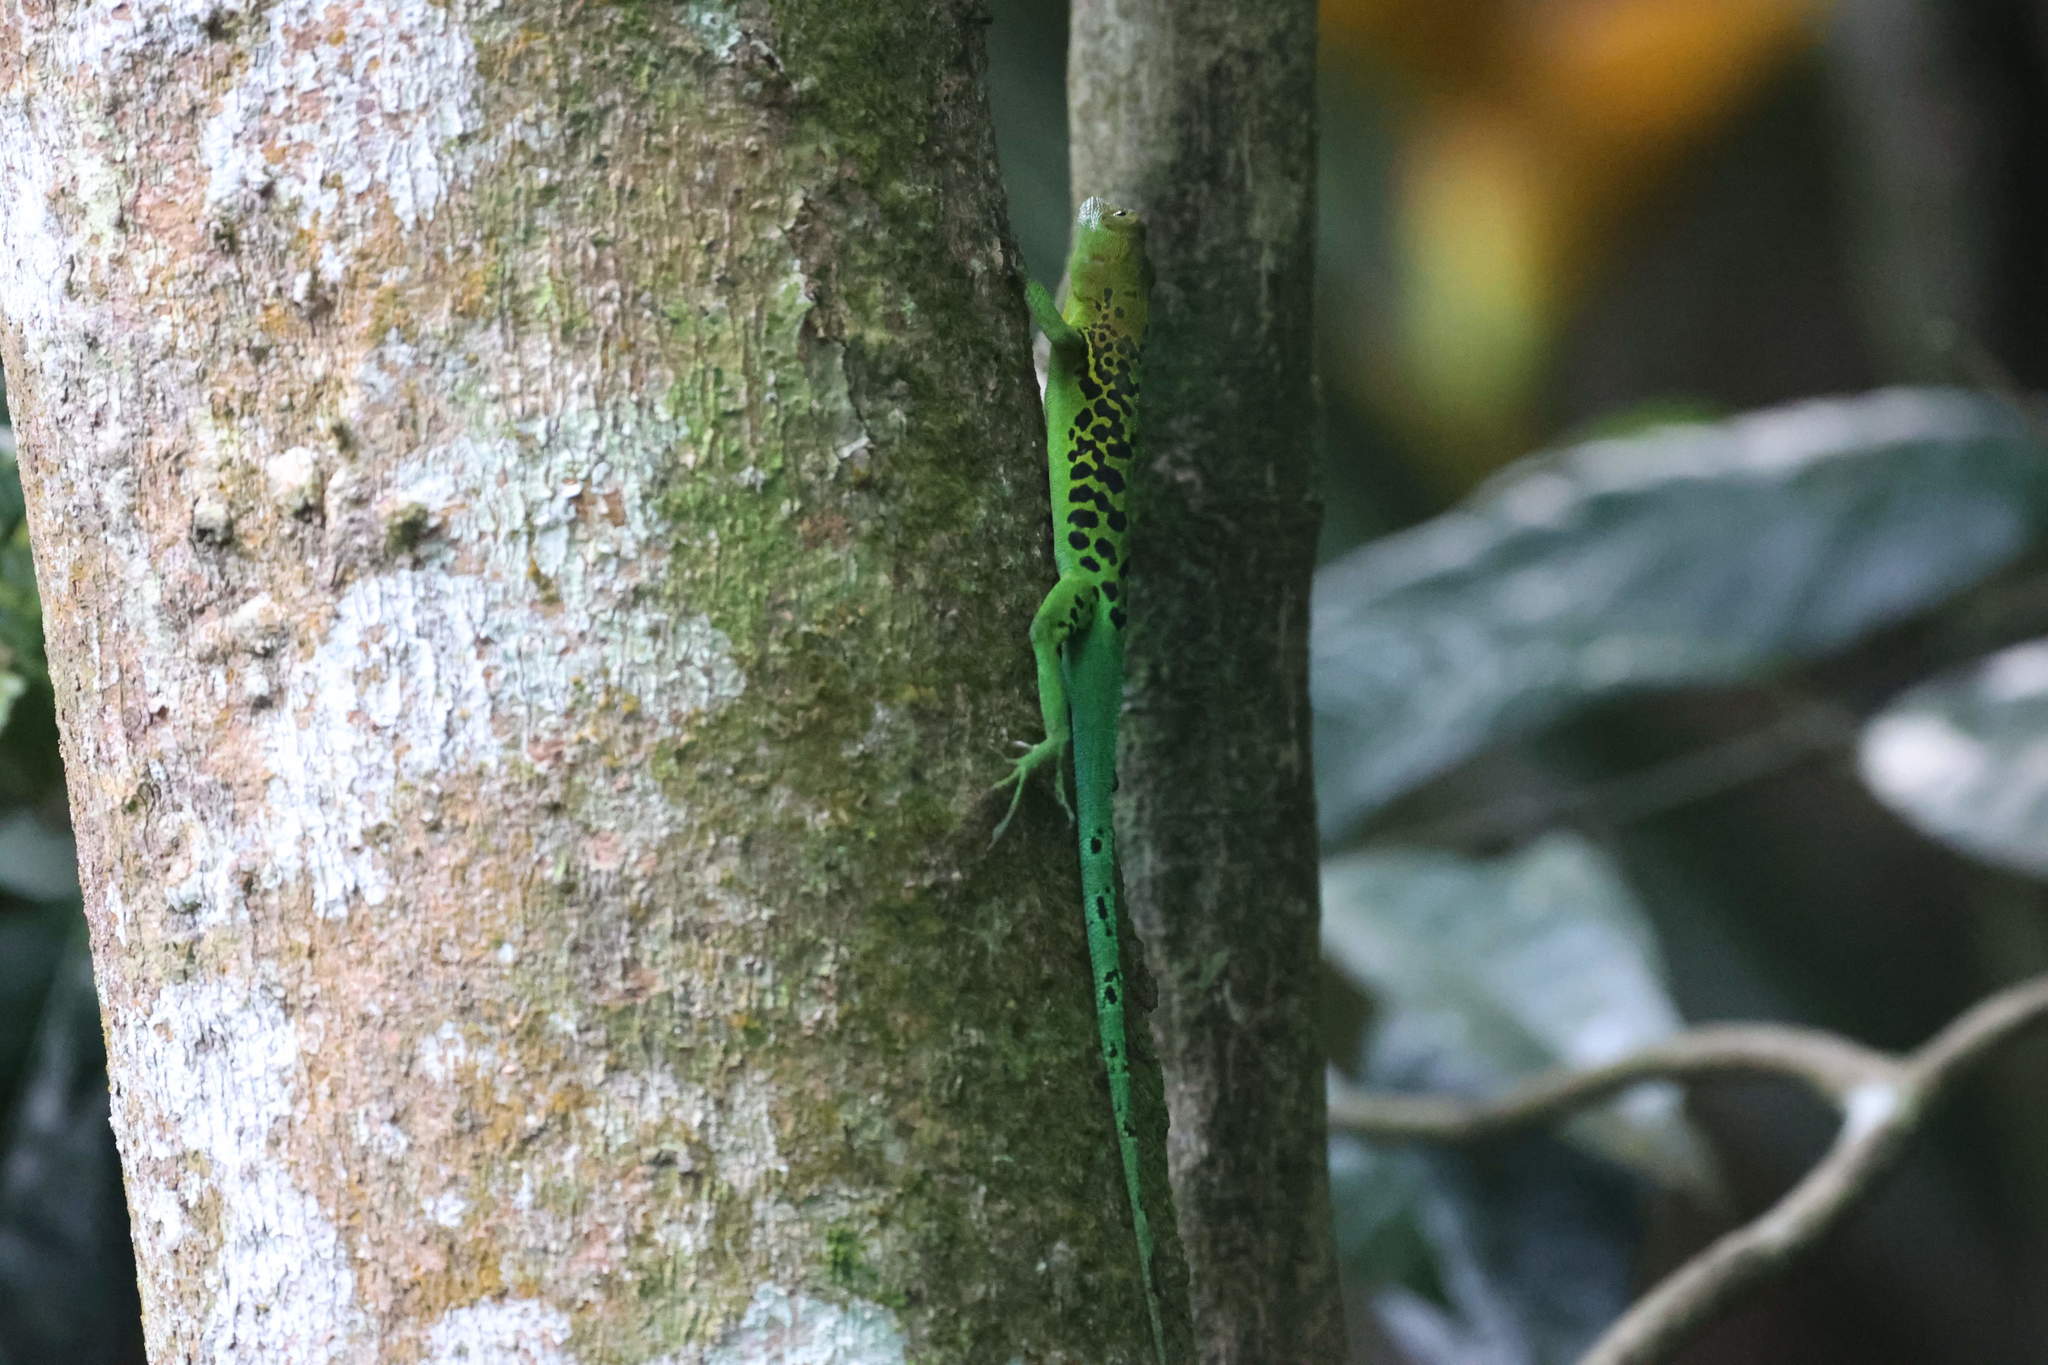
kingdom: Animalia
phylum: Chordata
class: Squamata
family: Dactyloidae
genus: Anolis
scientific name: Anolis marmoratus
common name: Guadeloupe anole
